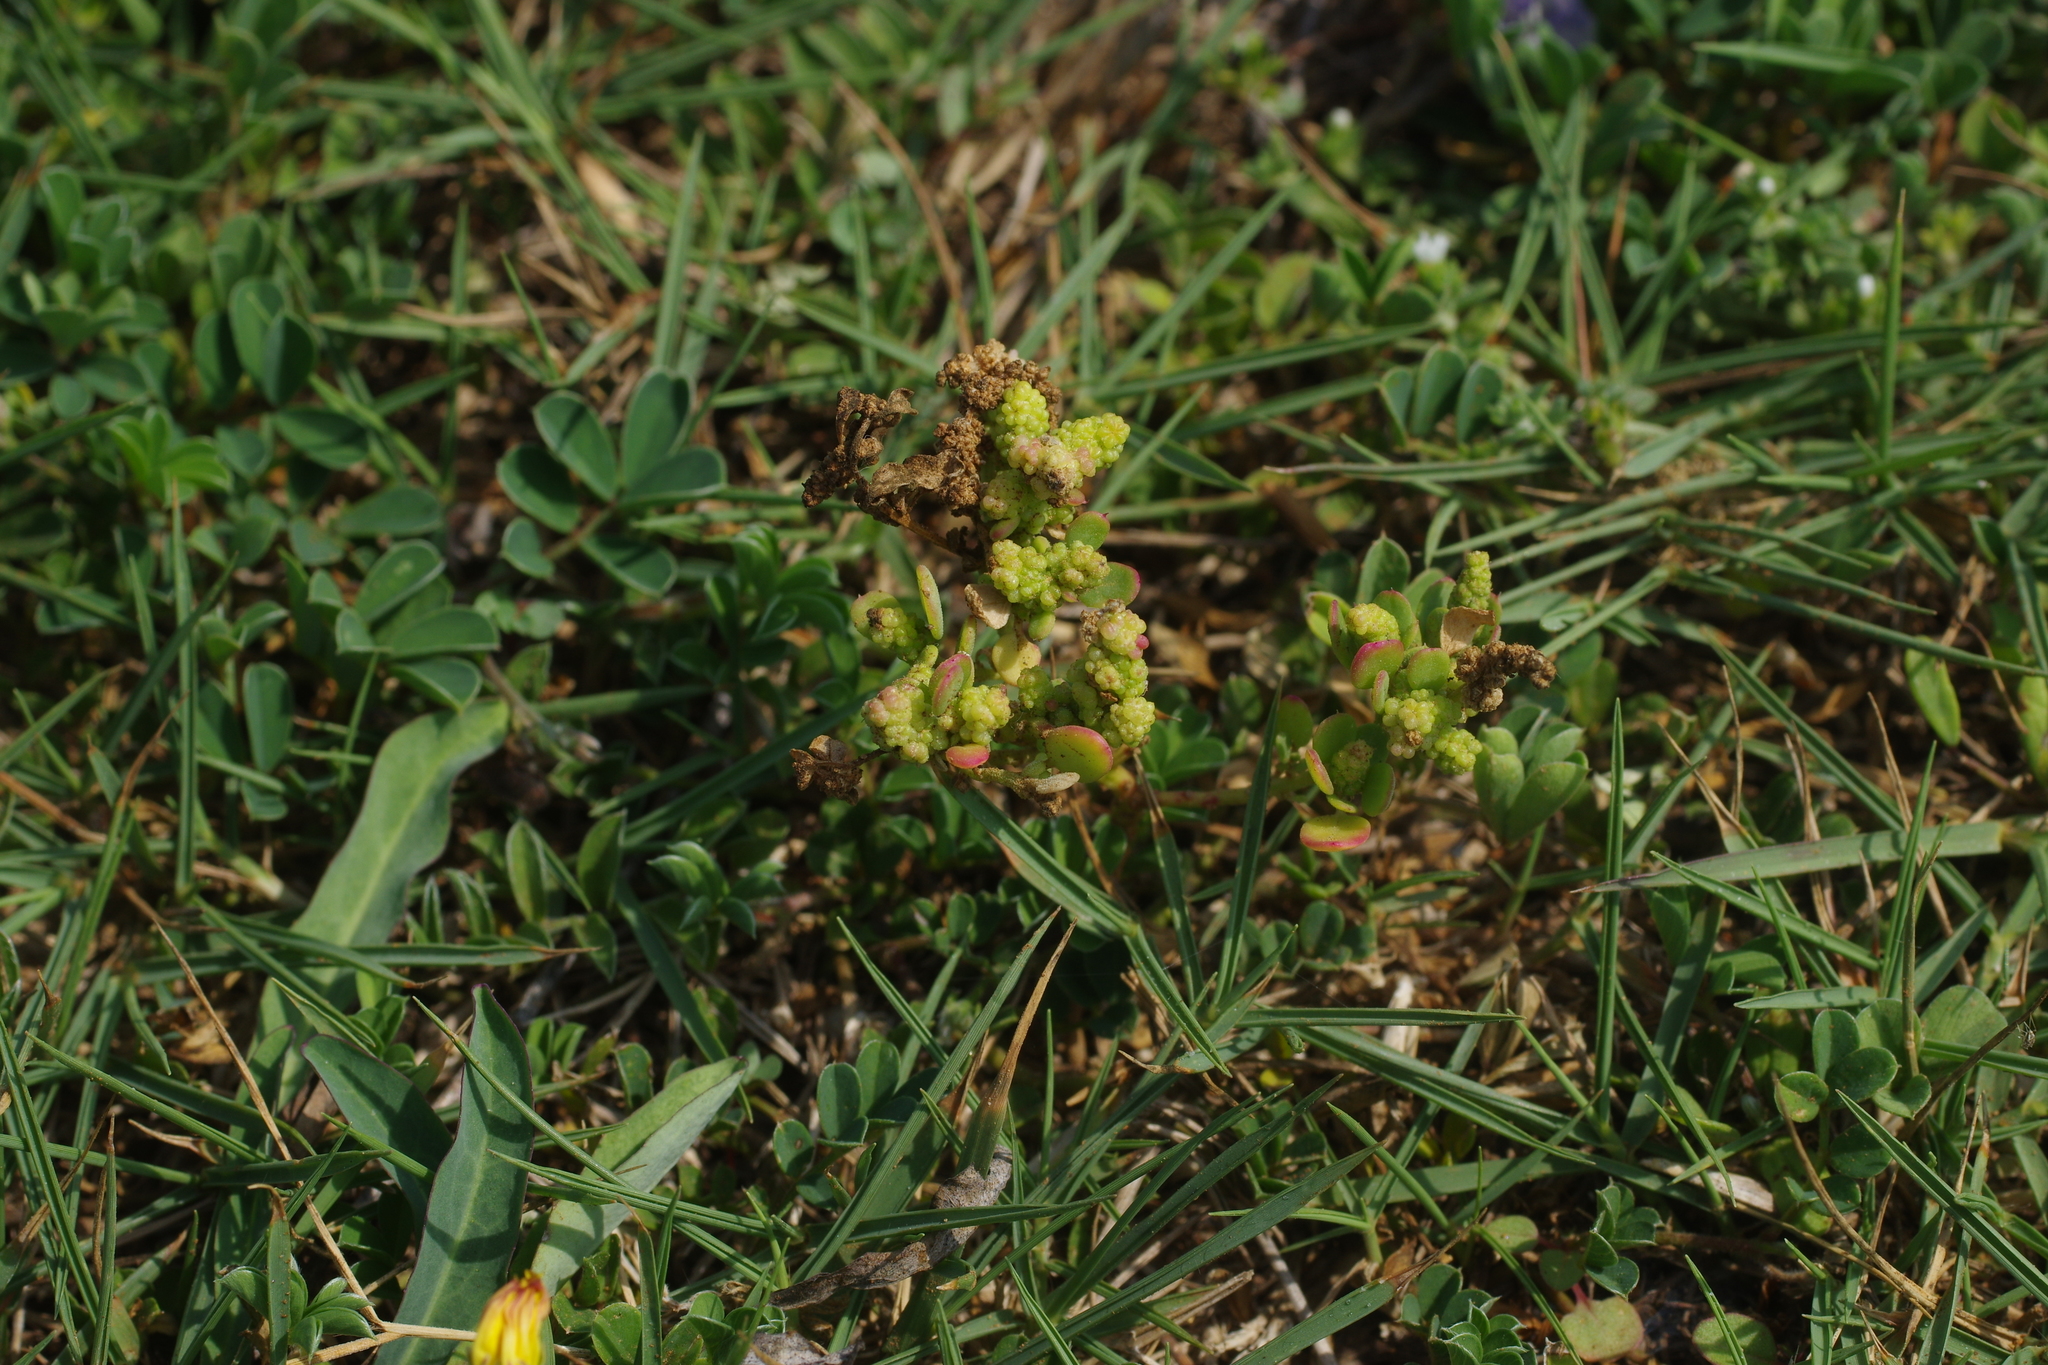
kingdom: Plantae
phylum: Tracheophyta
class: Magnoliopsida
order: Caryophyllales
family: Amaranthaceae
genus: Chenopodium
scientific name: Chenopodium acuminatum
